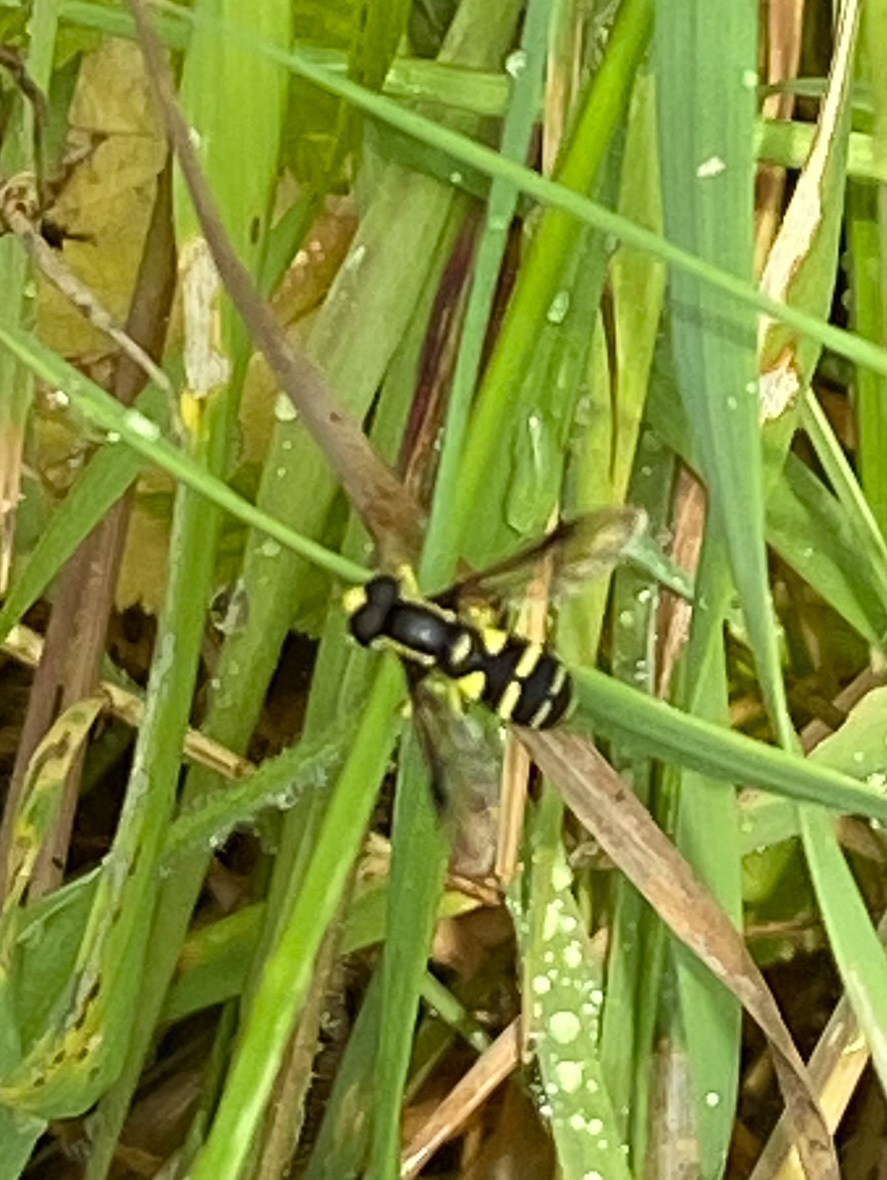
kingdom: Animalia
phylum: Arthropoda
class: Insecta
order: Diptera
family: Syrphidae
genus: Philhelius
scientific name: Philhelius pedissequum
